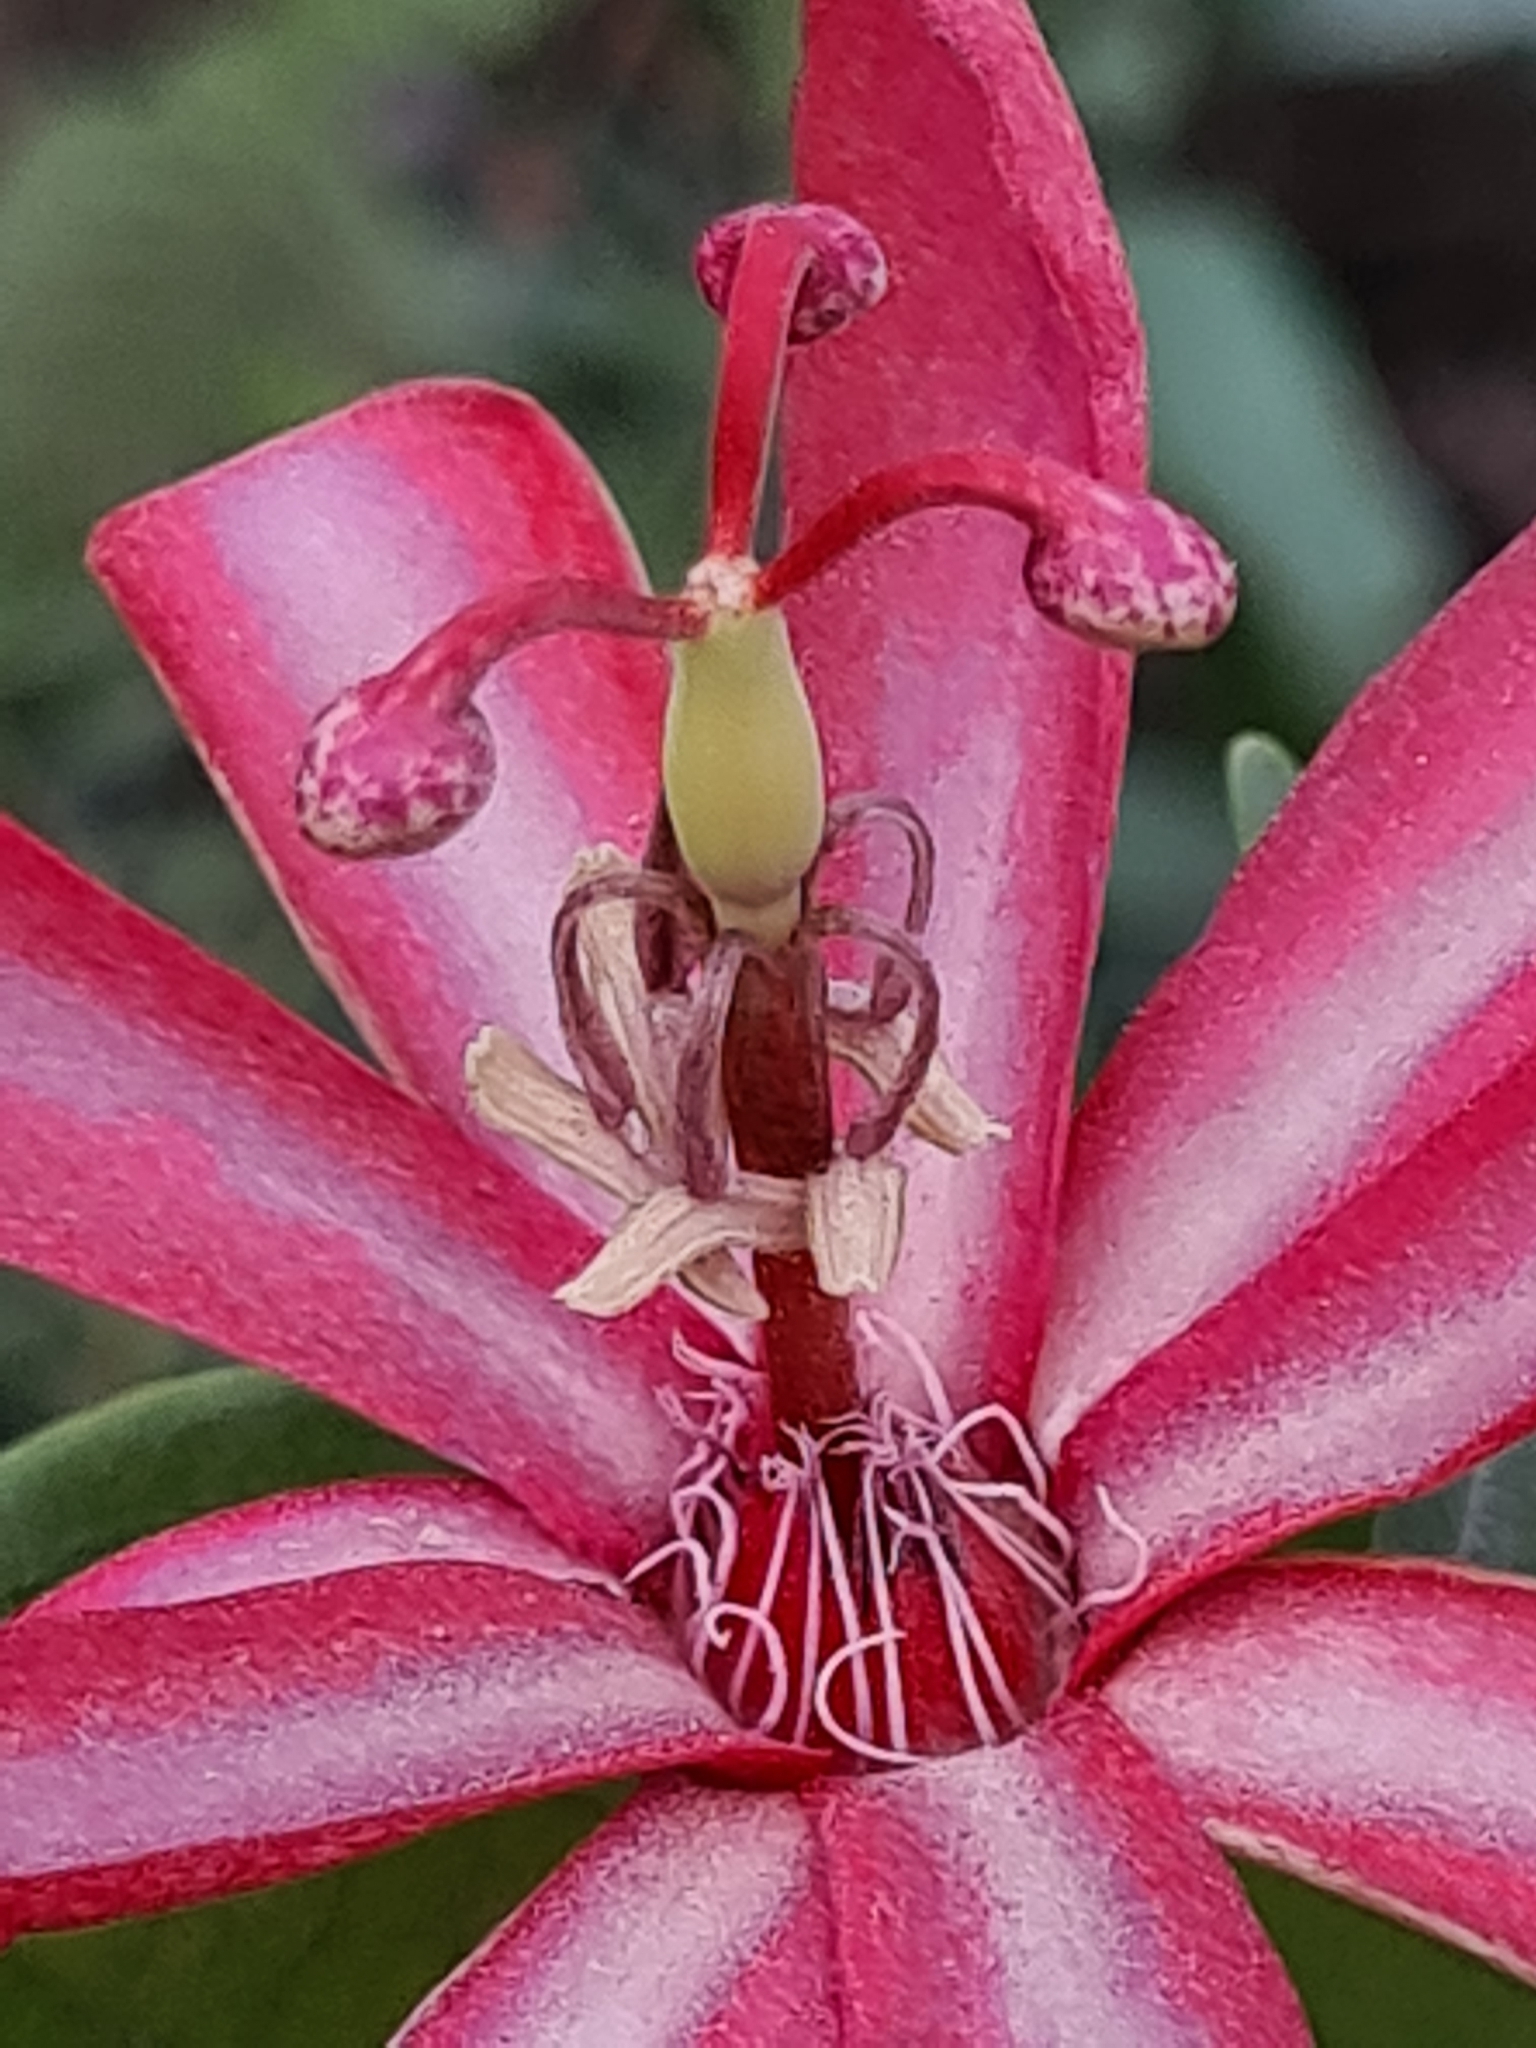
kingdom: Plantae
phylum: Tracheophyta
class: Magnoliopsida
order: Malpighiales
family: Passifloraceae
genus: Passiflora
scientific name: Passiflora glandulosa
